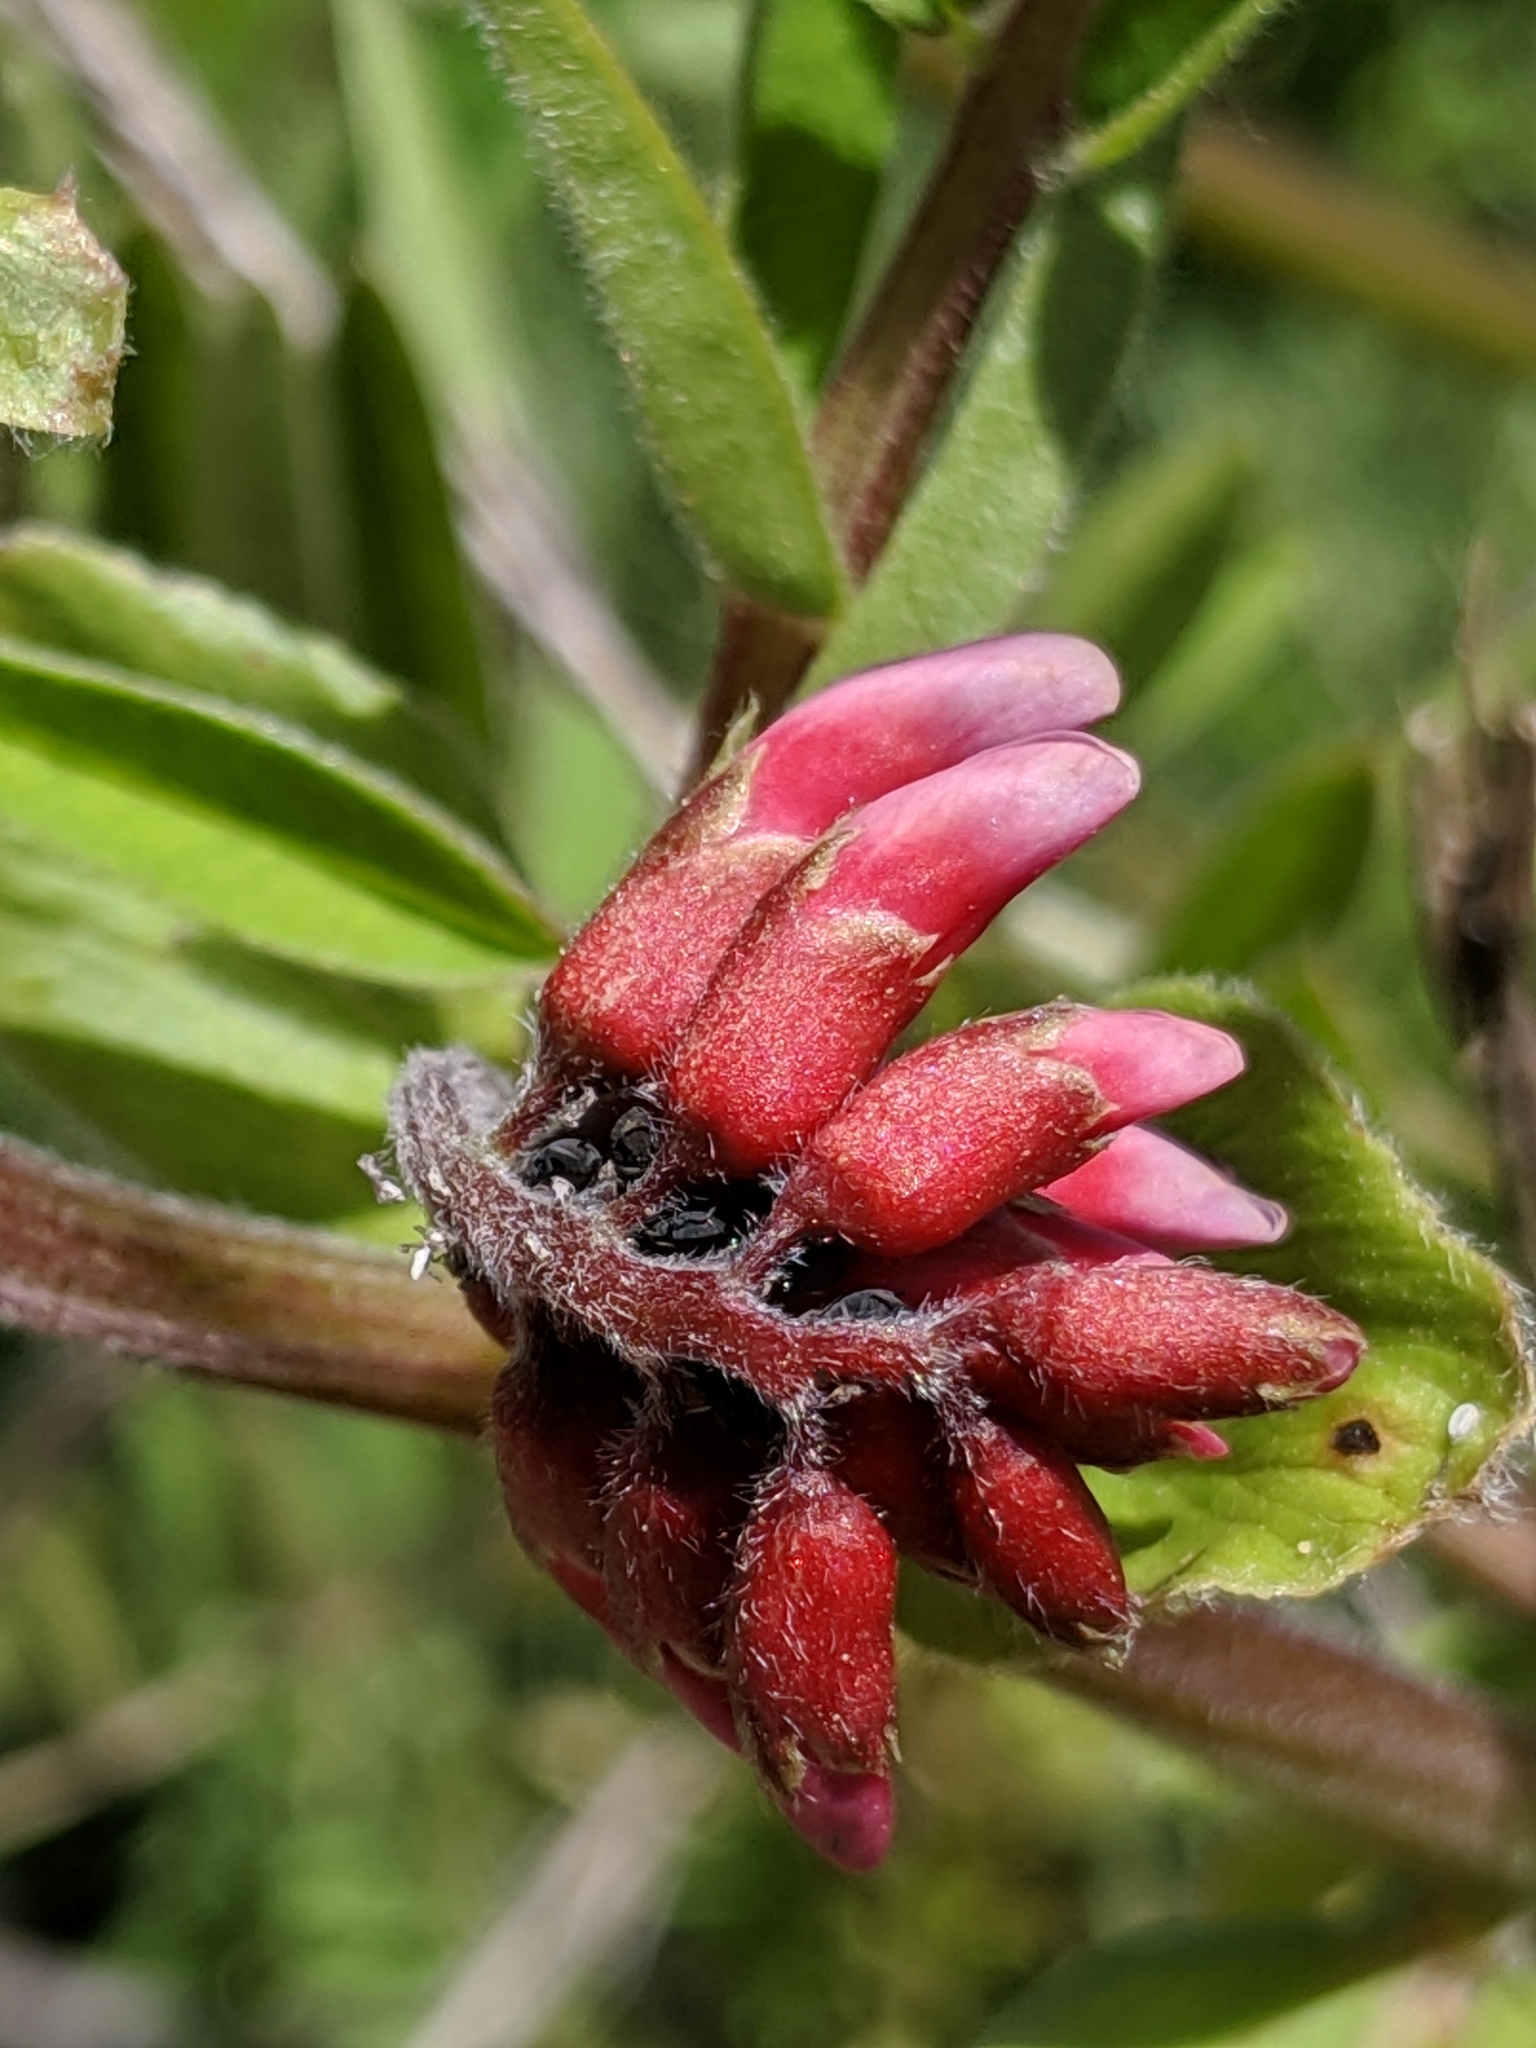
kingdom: Plantae
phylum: Tracheophyta
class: Magnoliopsida
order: Fabales
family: Fabaceae
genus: Vicia
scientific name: Vicia
